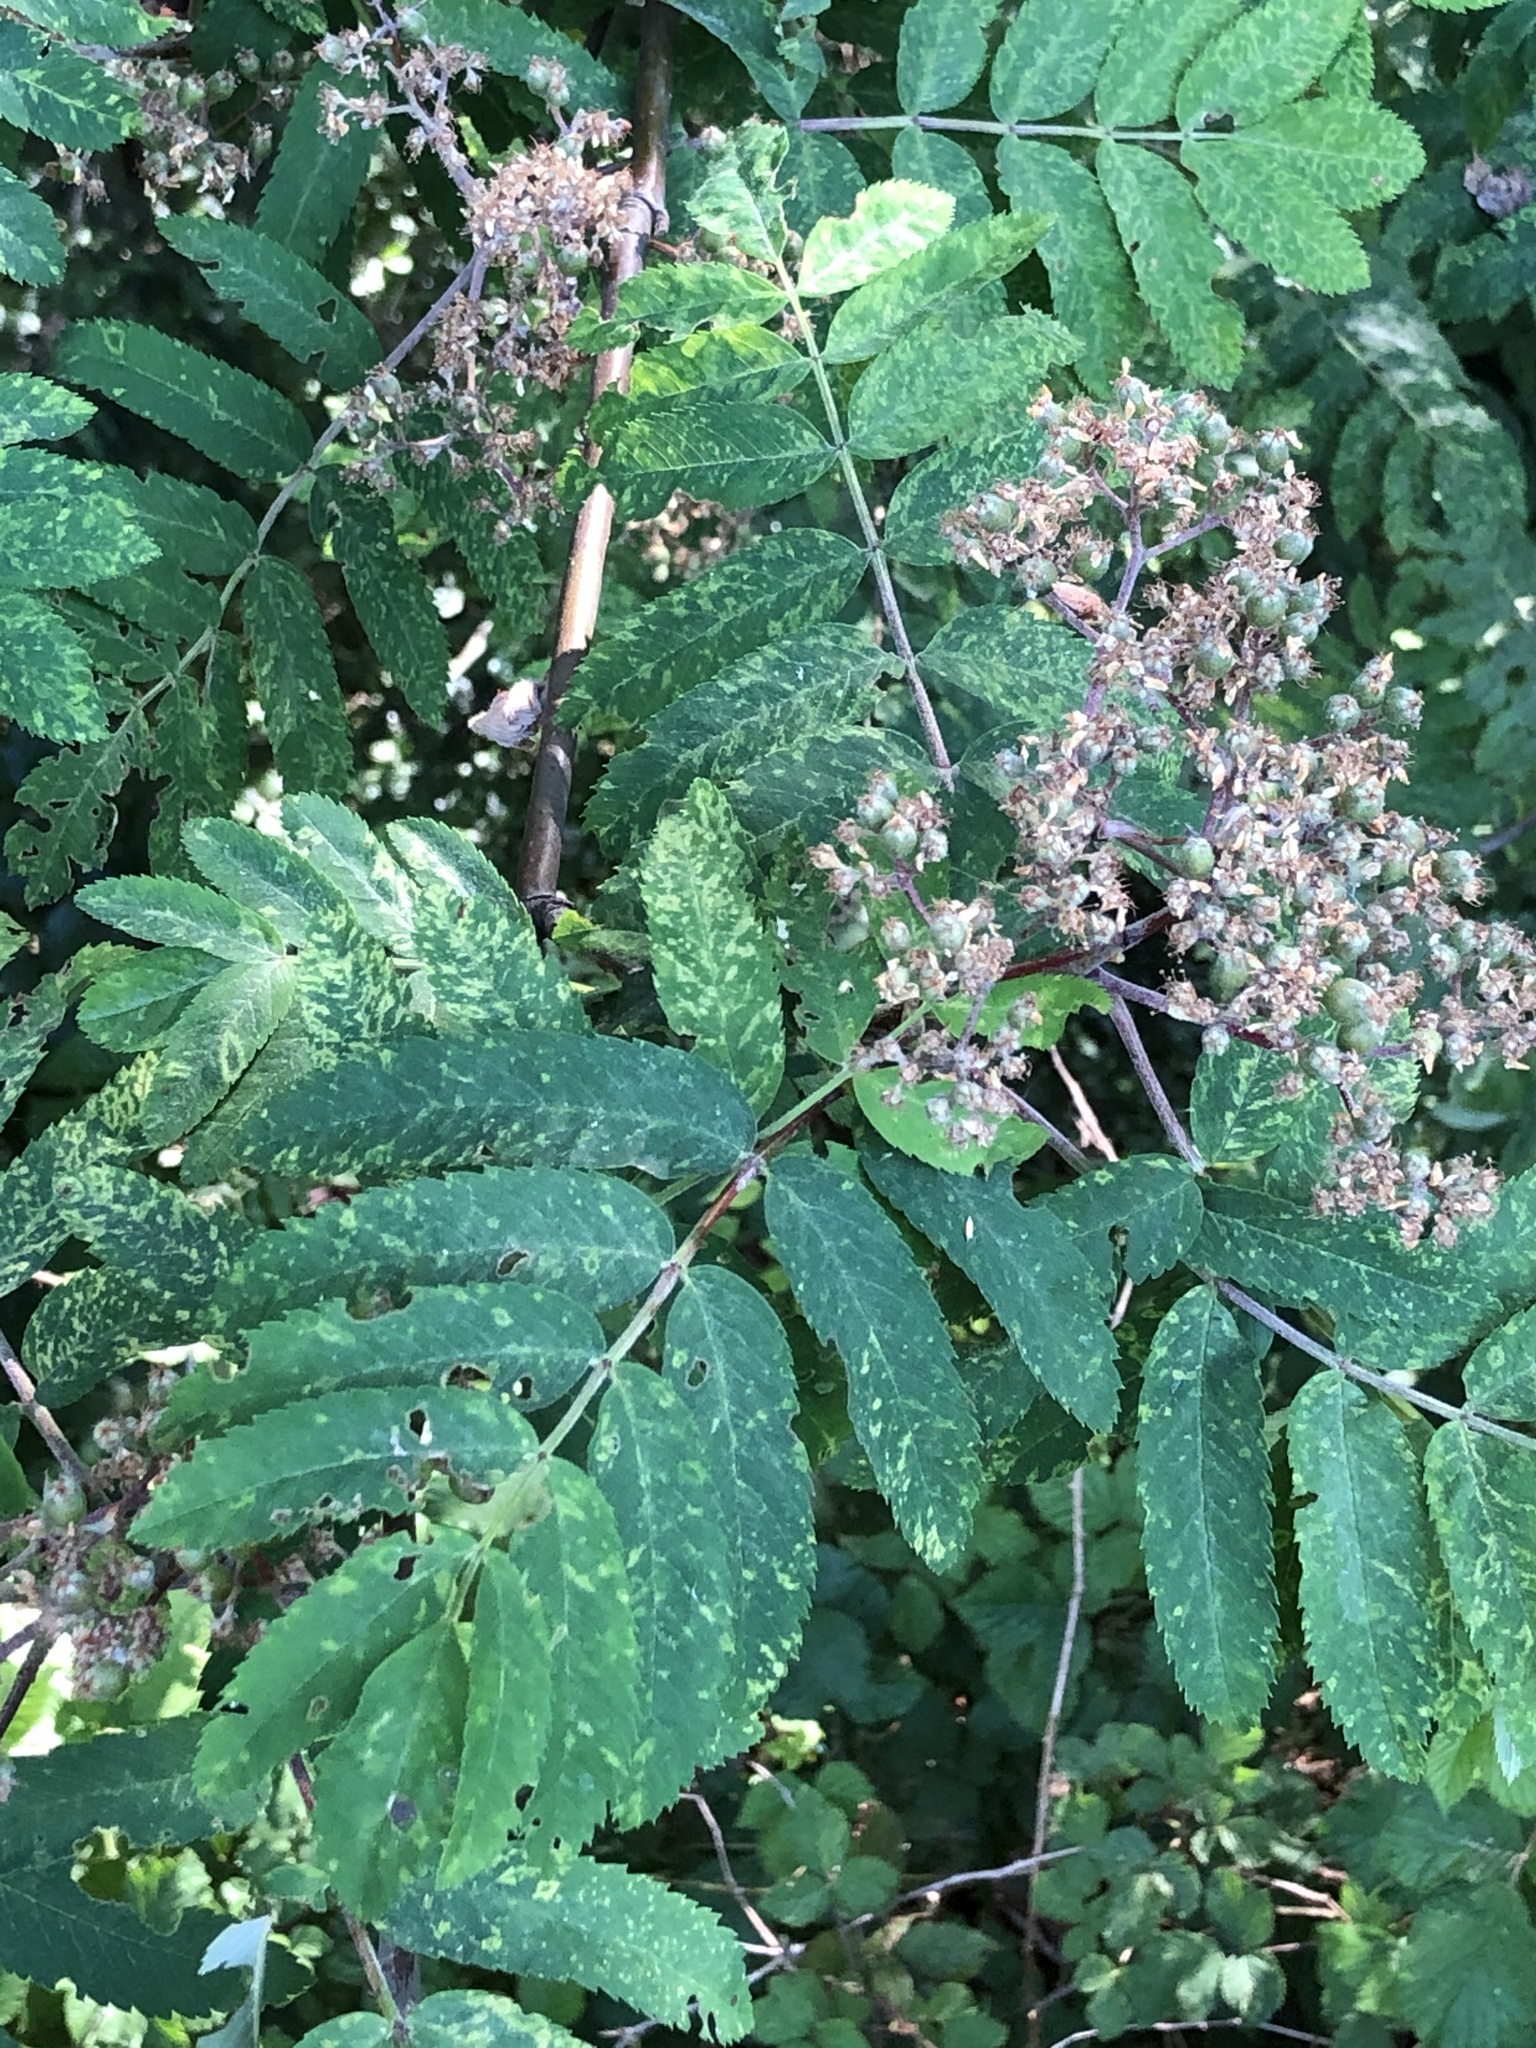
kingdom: Plantae
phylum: Tracheophyta
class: Magnoliopsida
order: Rosales
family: Rosaceae
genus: Sorbus
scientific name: Sorbus aucuparia
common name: Rowan
